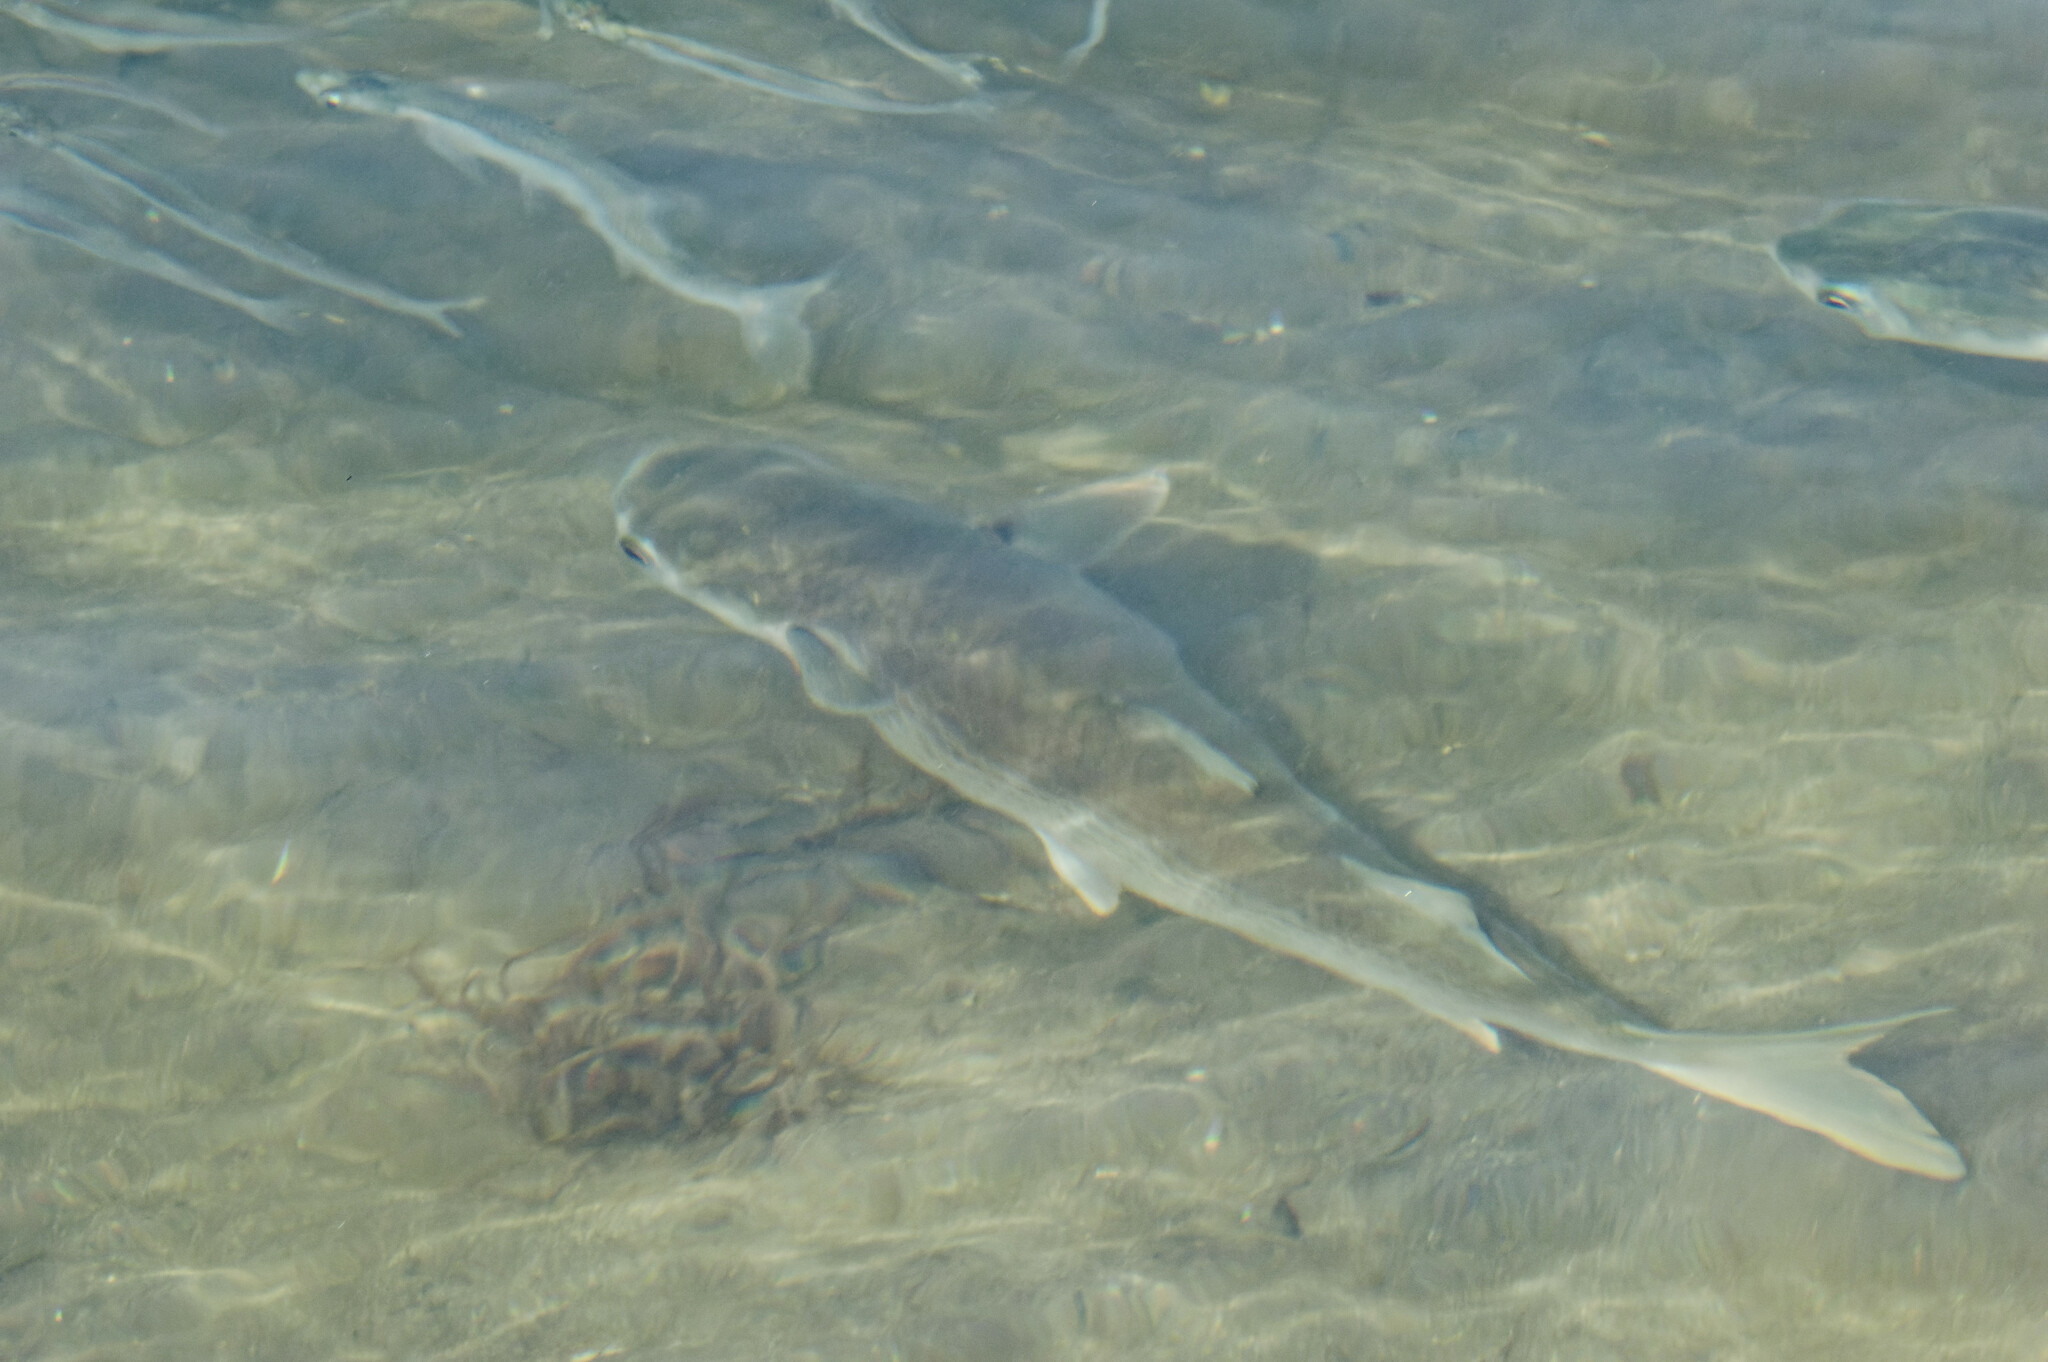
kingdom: Animalia
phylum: Chordata
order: Mugiliformes
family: Mugilidae
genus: Mugil
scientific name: Mugil cephalus
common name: Grey mullet
